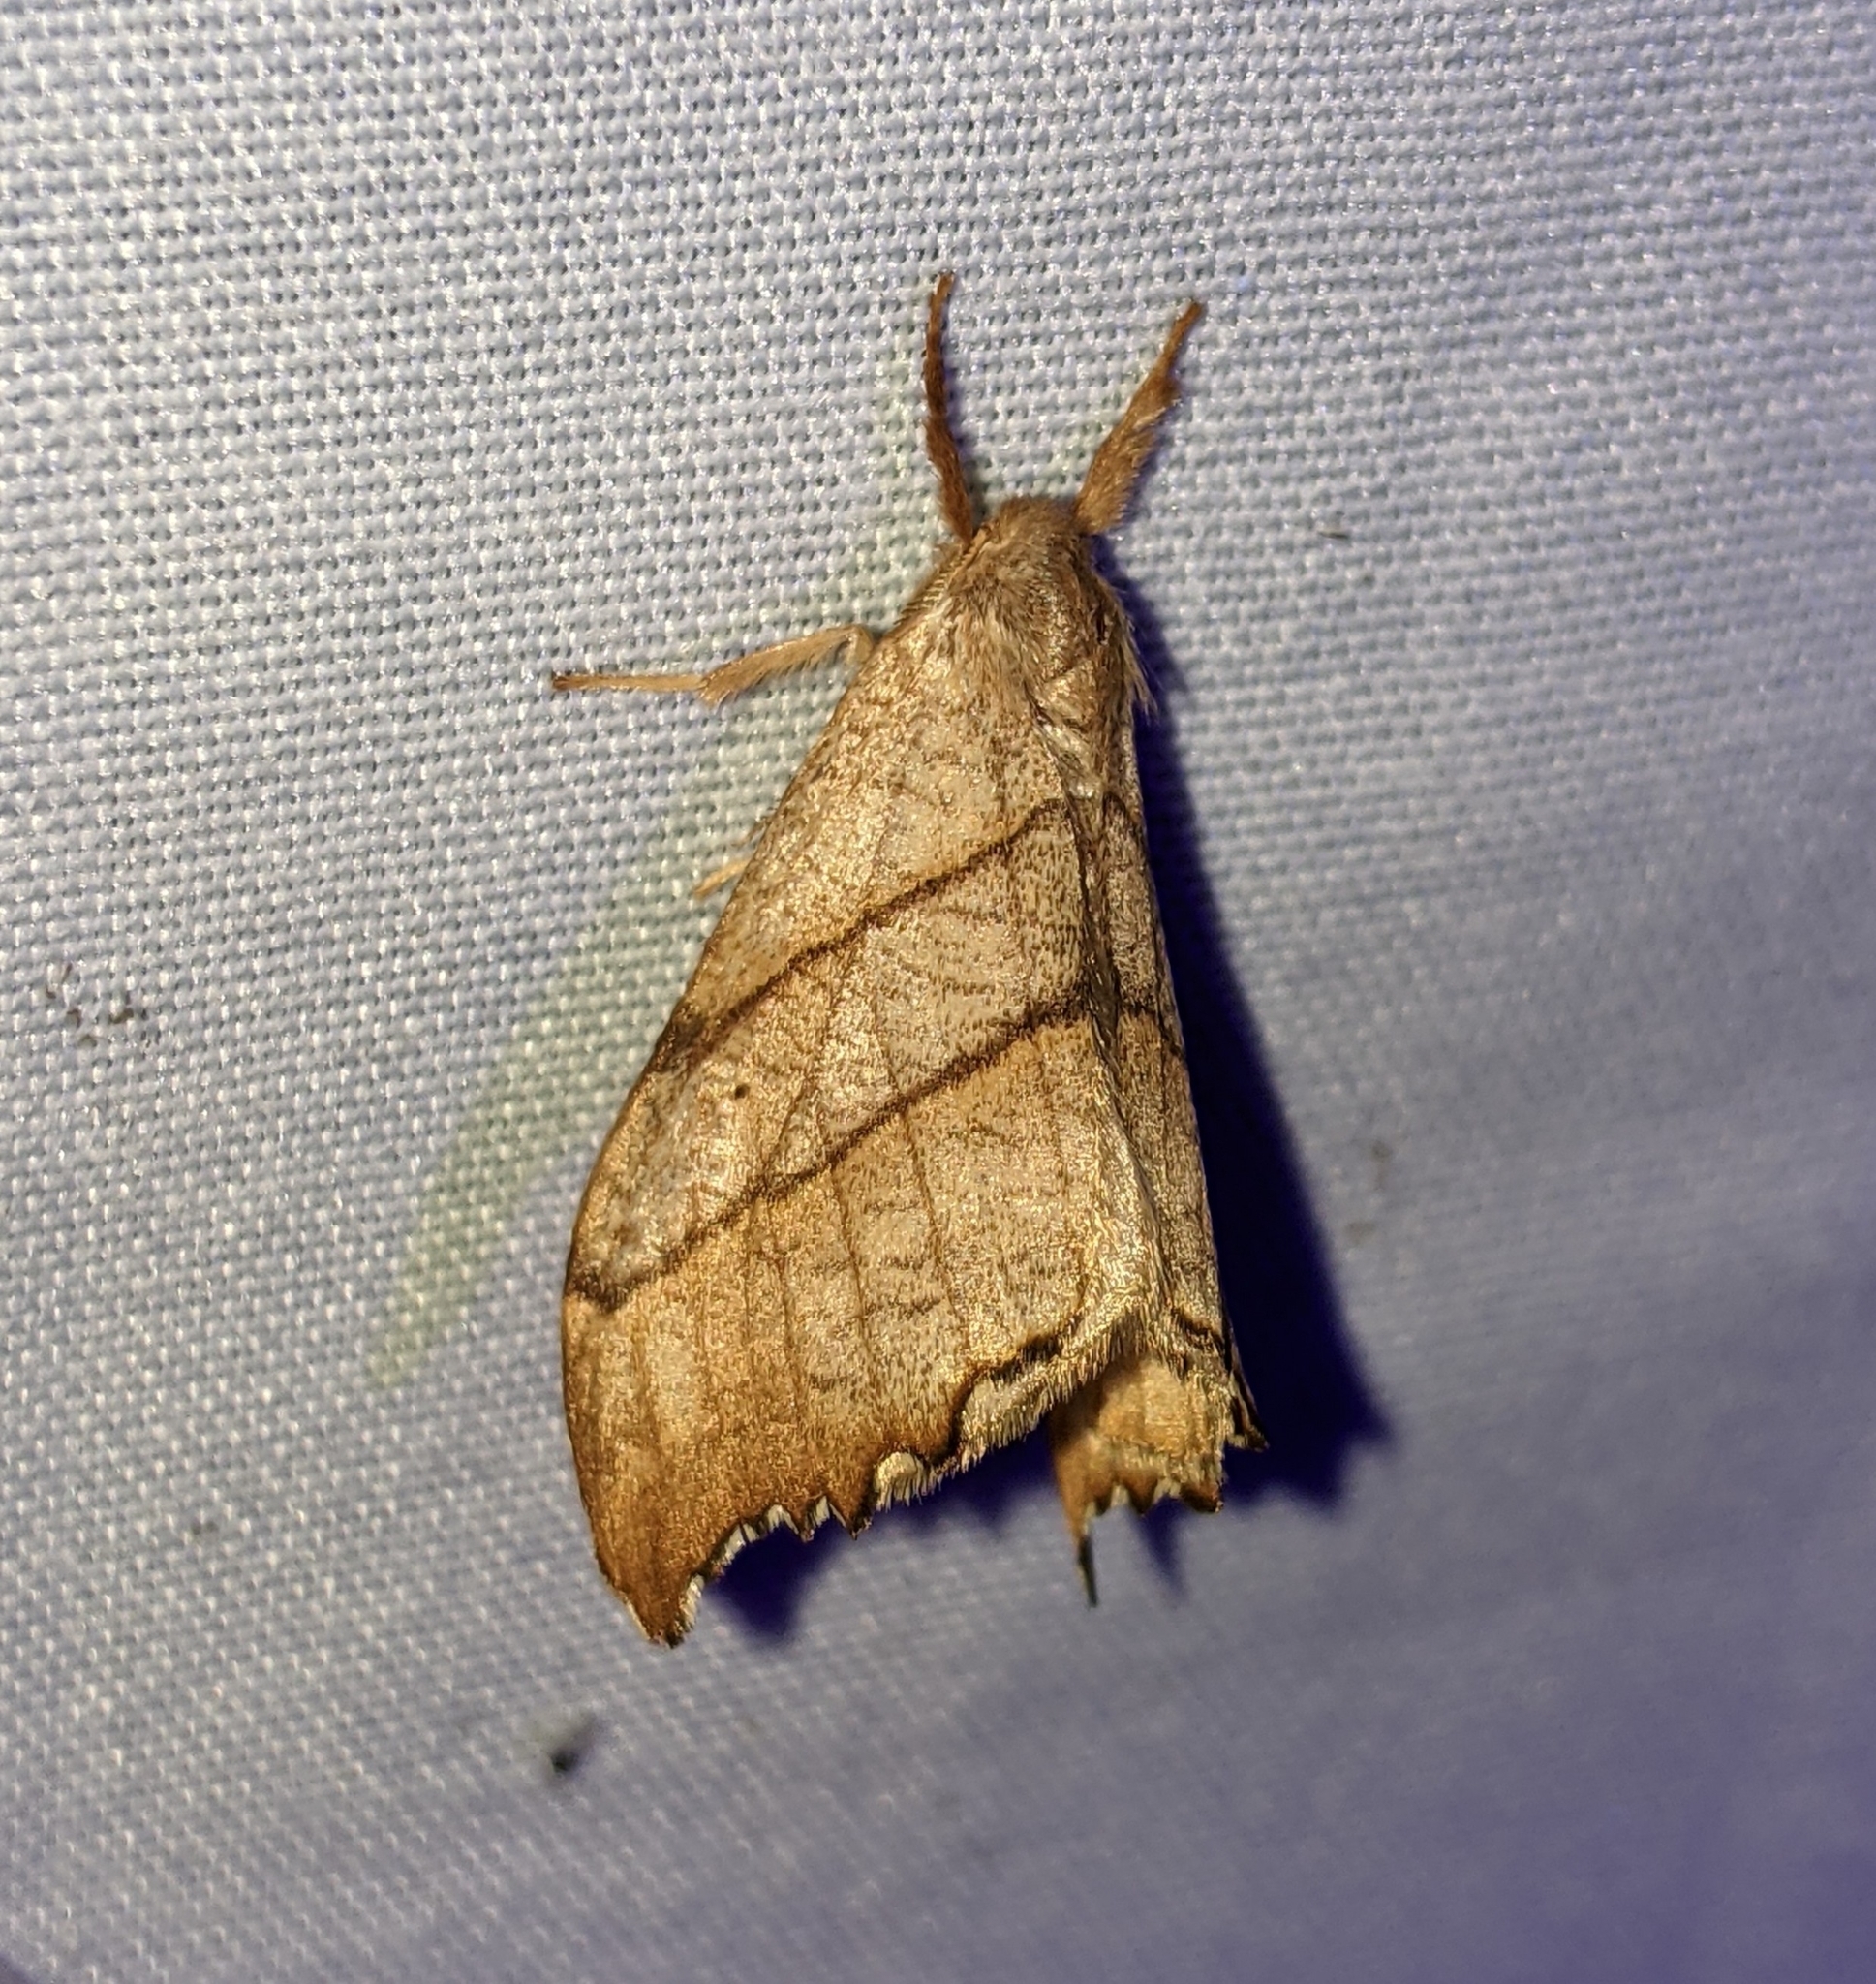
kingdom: Animalia
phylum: Arthropoda
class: Insecta
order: Lepidoptera
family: Drepanidae
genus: Falcaria
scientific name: Falcaria bilineata
